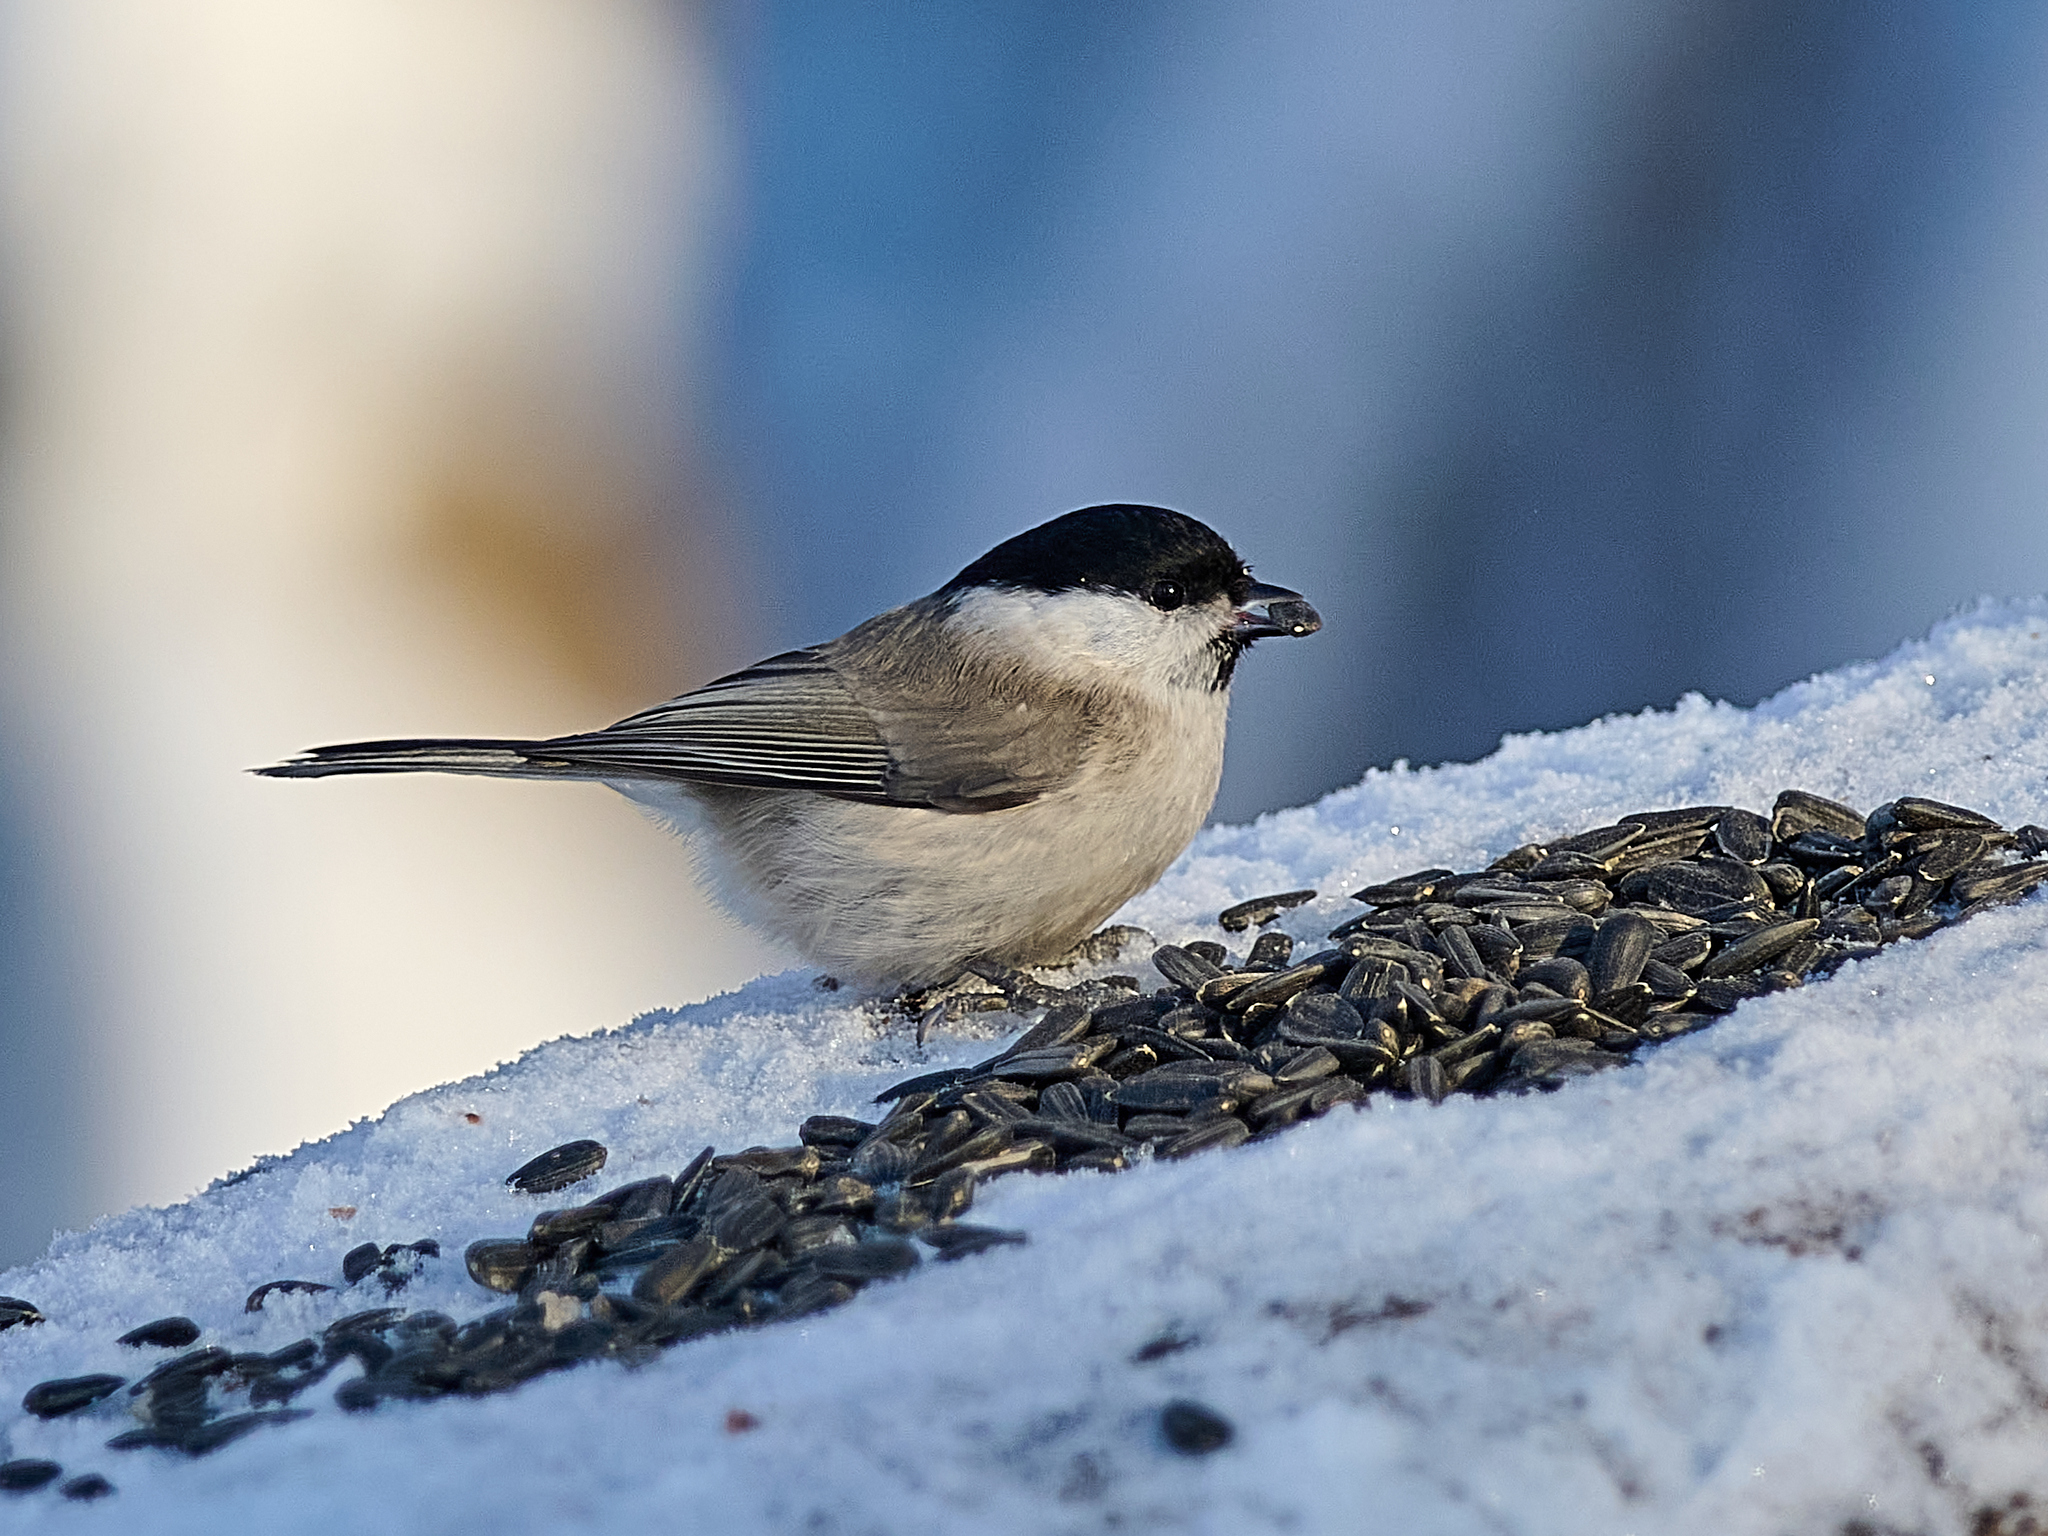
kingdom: Animalia
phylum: Chordata
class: Aves
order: Passeriformes
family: Paridae
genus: Poecile
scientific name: Poecile palustris
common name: Marsh tit
